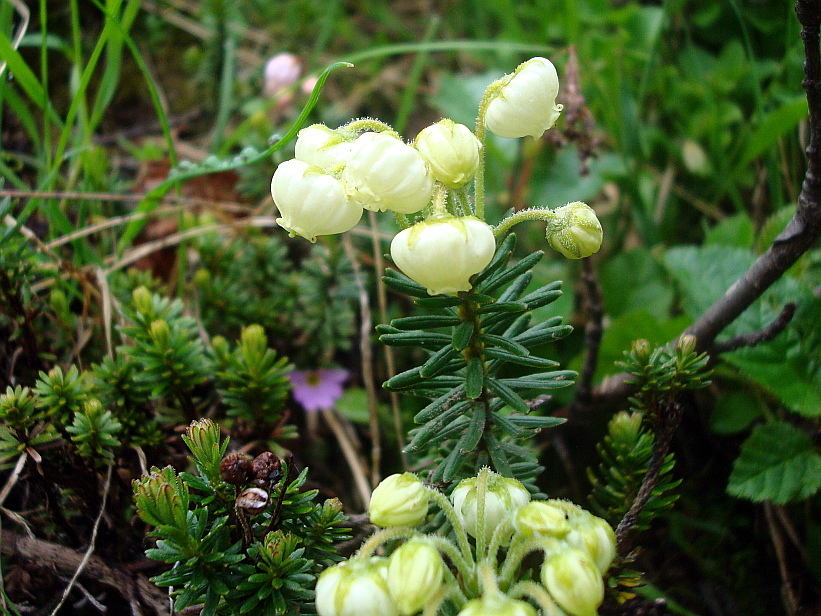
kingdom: Plantae
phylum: Tracheophyta
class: Magnoliopsida
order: Ericales
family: Ericaceae
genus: Phyllodoce
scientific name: Phyllodoce aleutica
